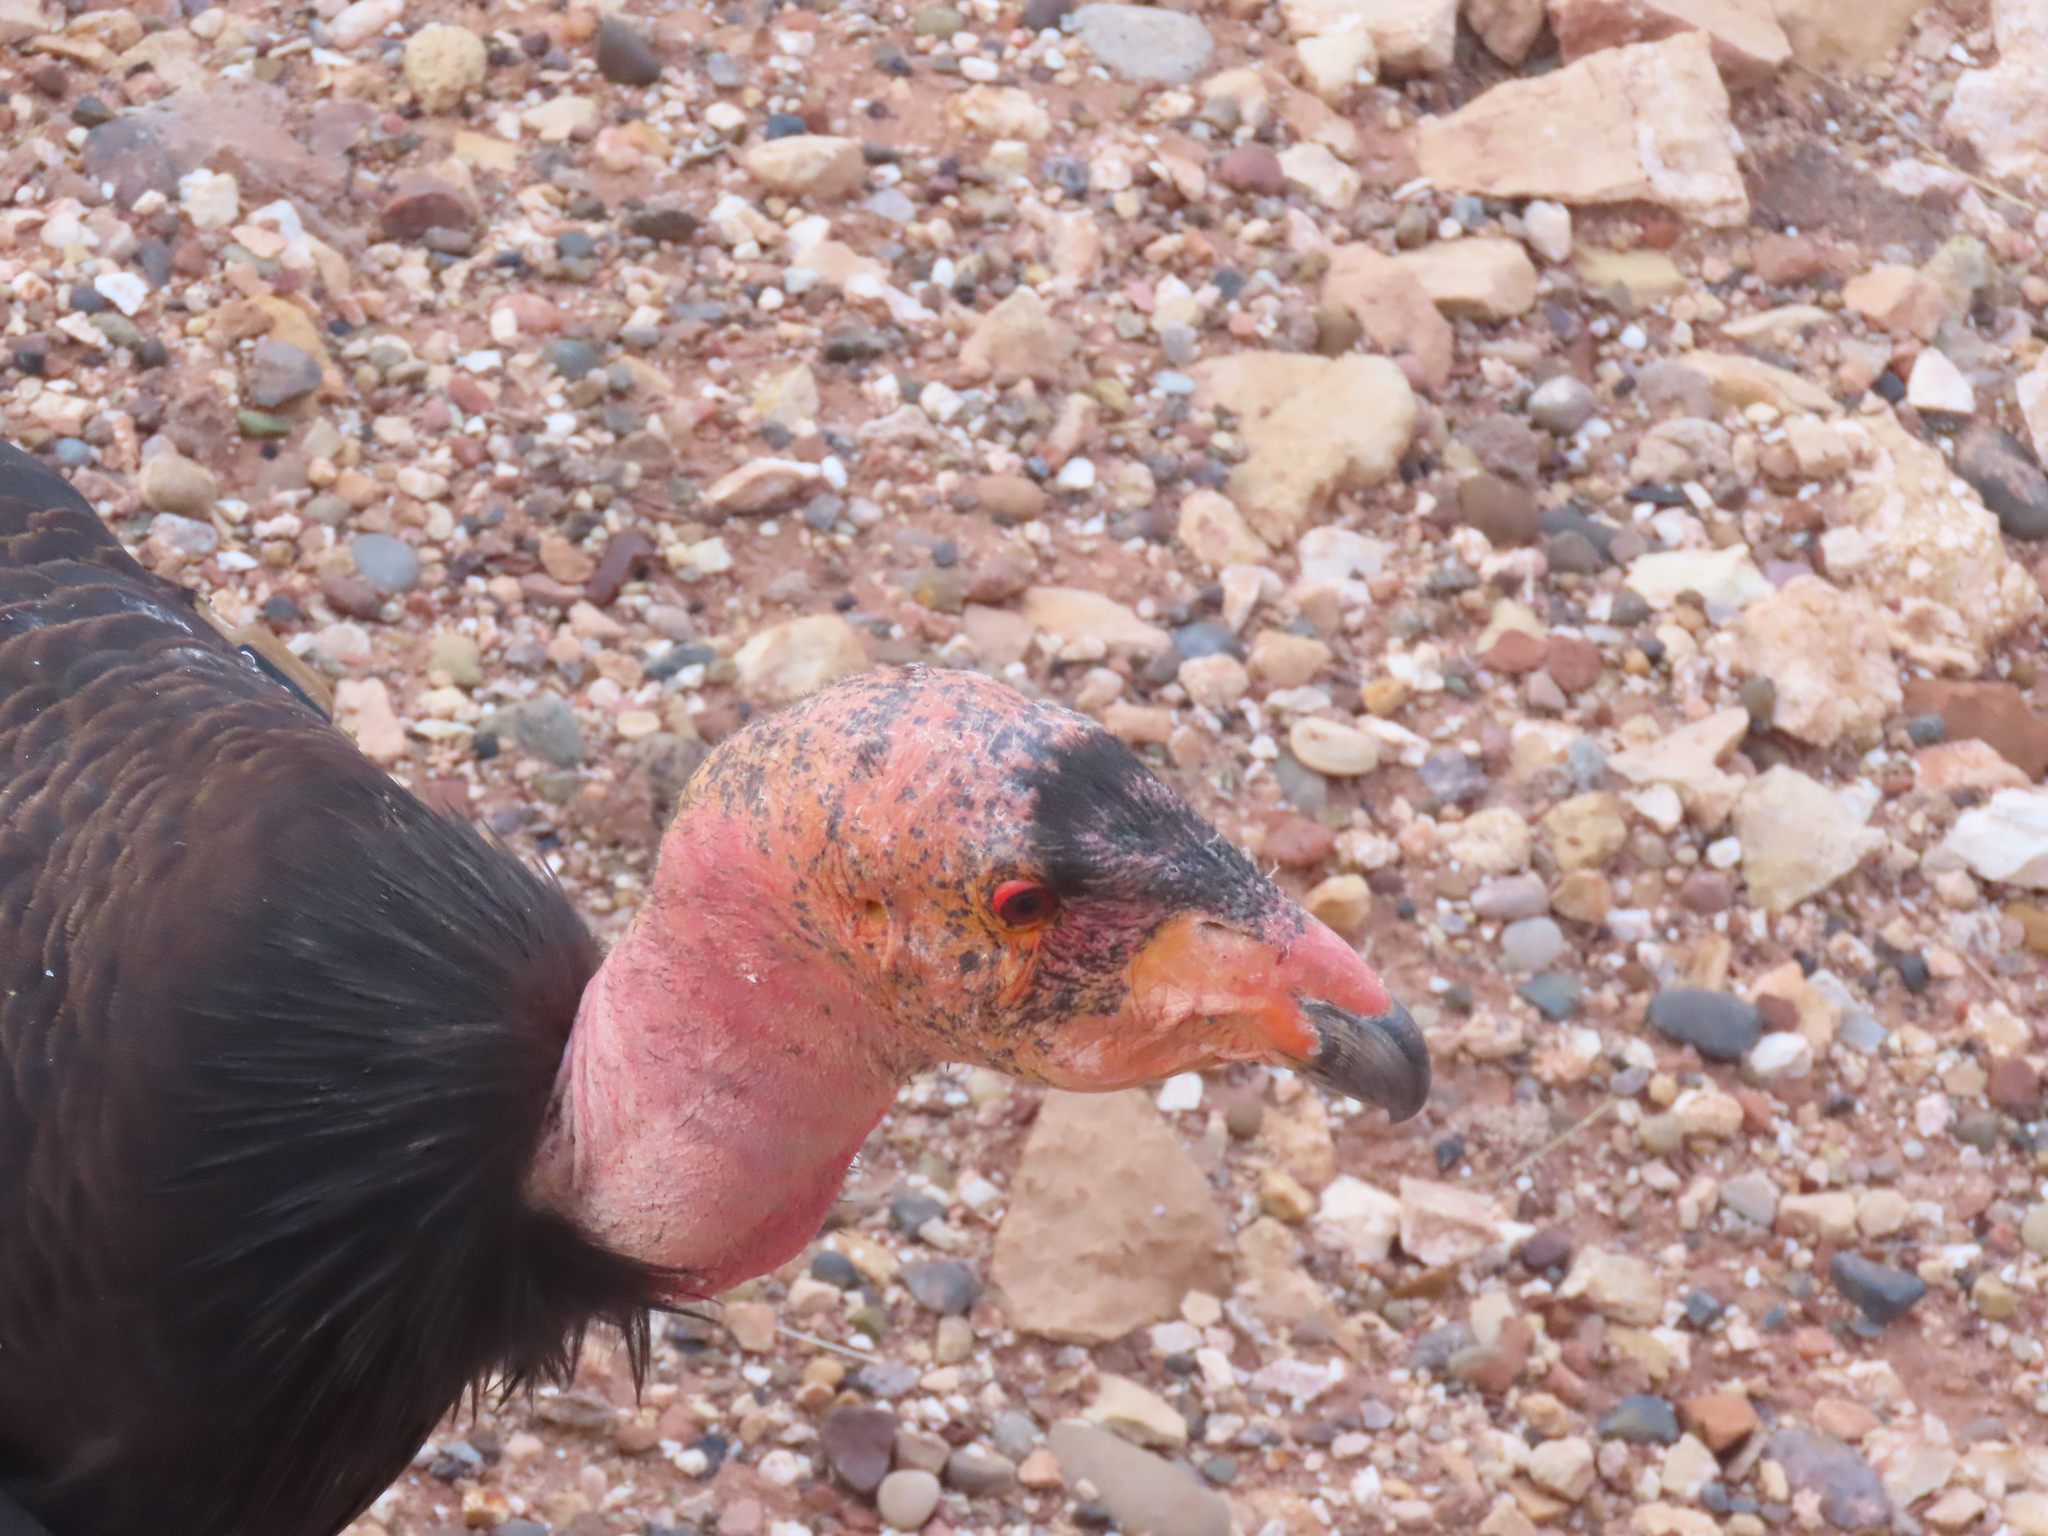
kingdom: Animalia
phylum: Chordata
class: Aves
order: Accipitriformes
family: Cathartidae
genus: Gymnogyps
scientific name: Gymnogyps californianus
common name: California condor
